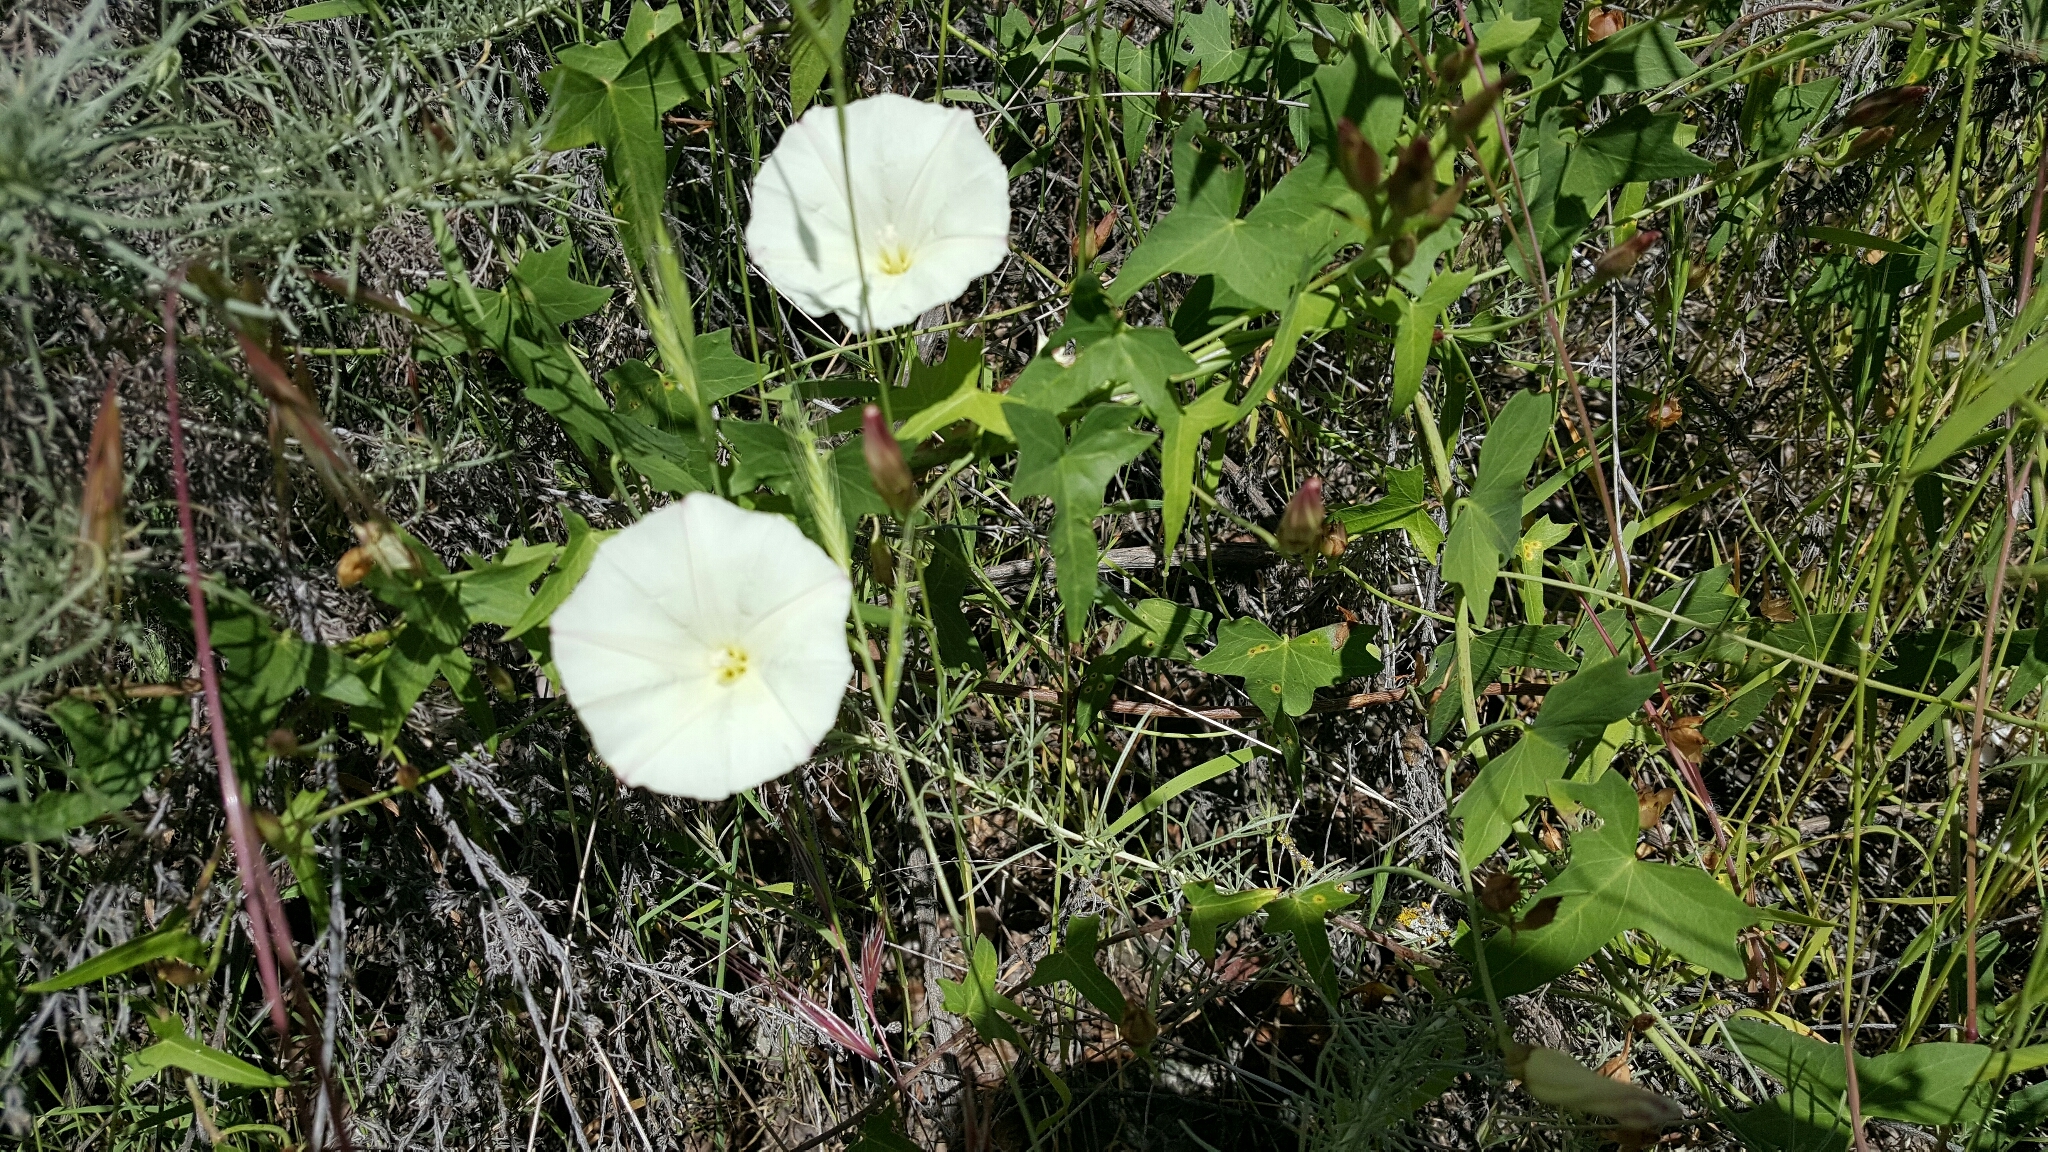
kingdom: Plantae
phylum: Tracheophyta
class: Magnoliopsida
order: Solanales
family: Convolvulaceae
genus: Calystegia
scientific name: Calystegia purpurata
